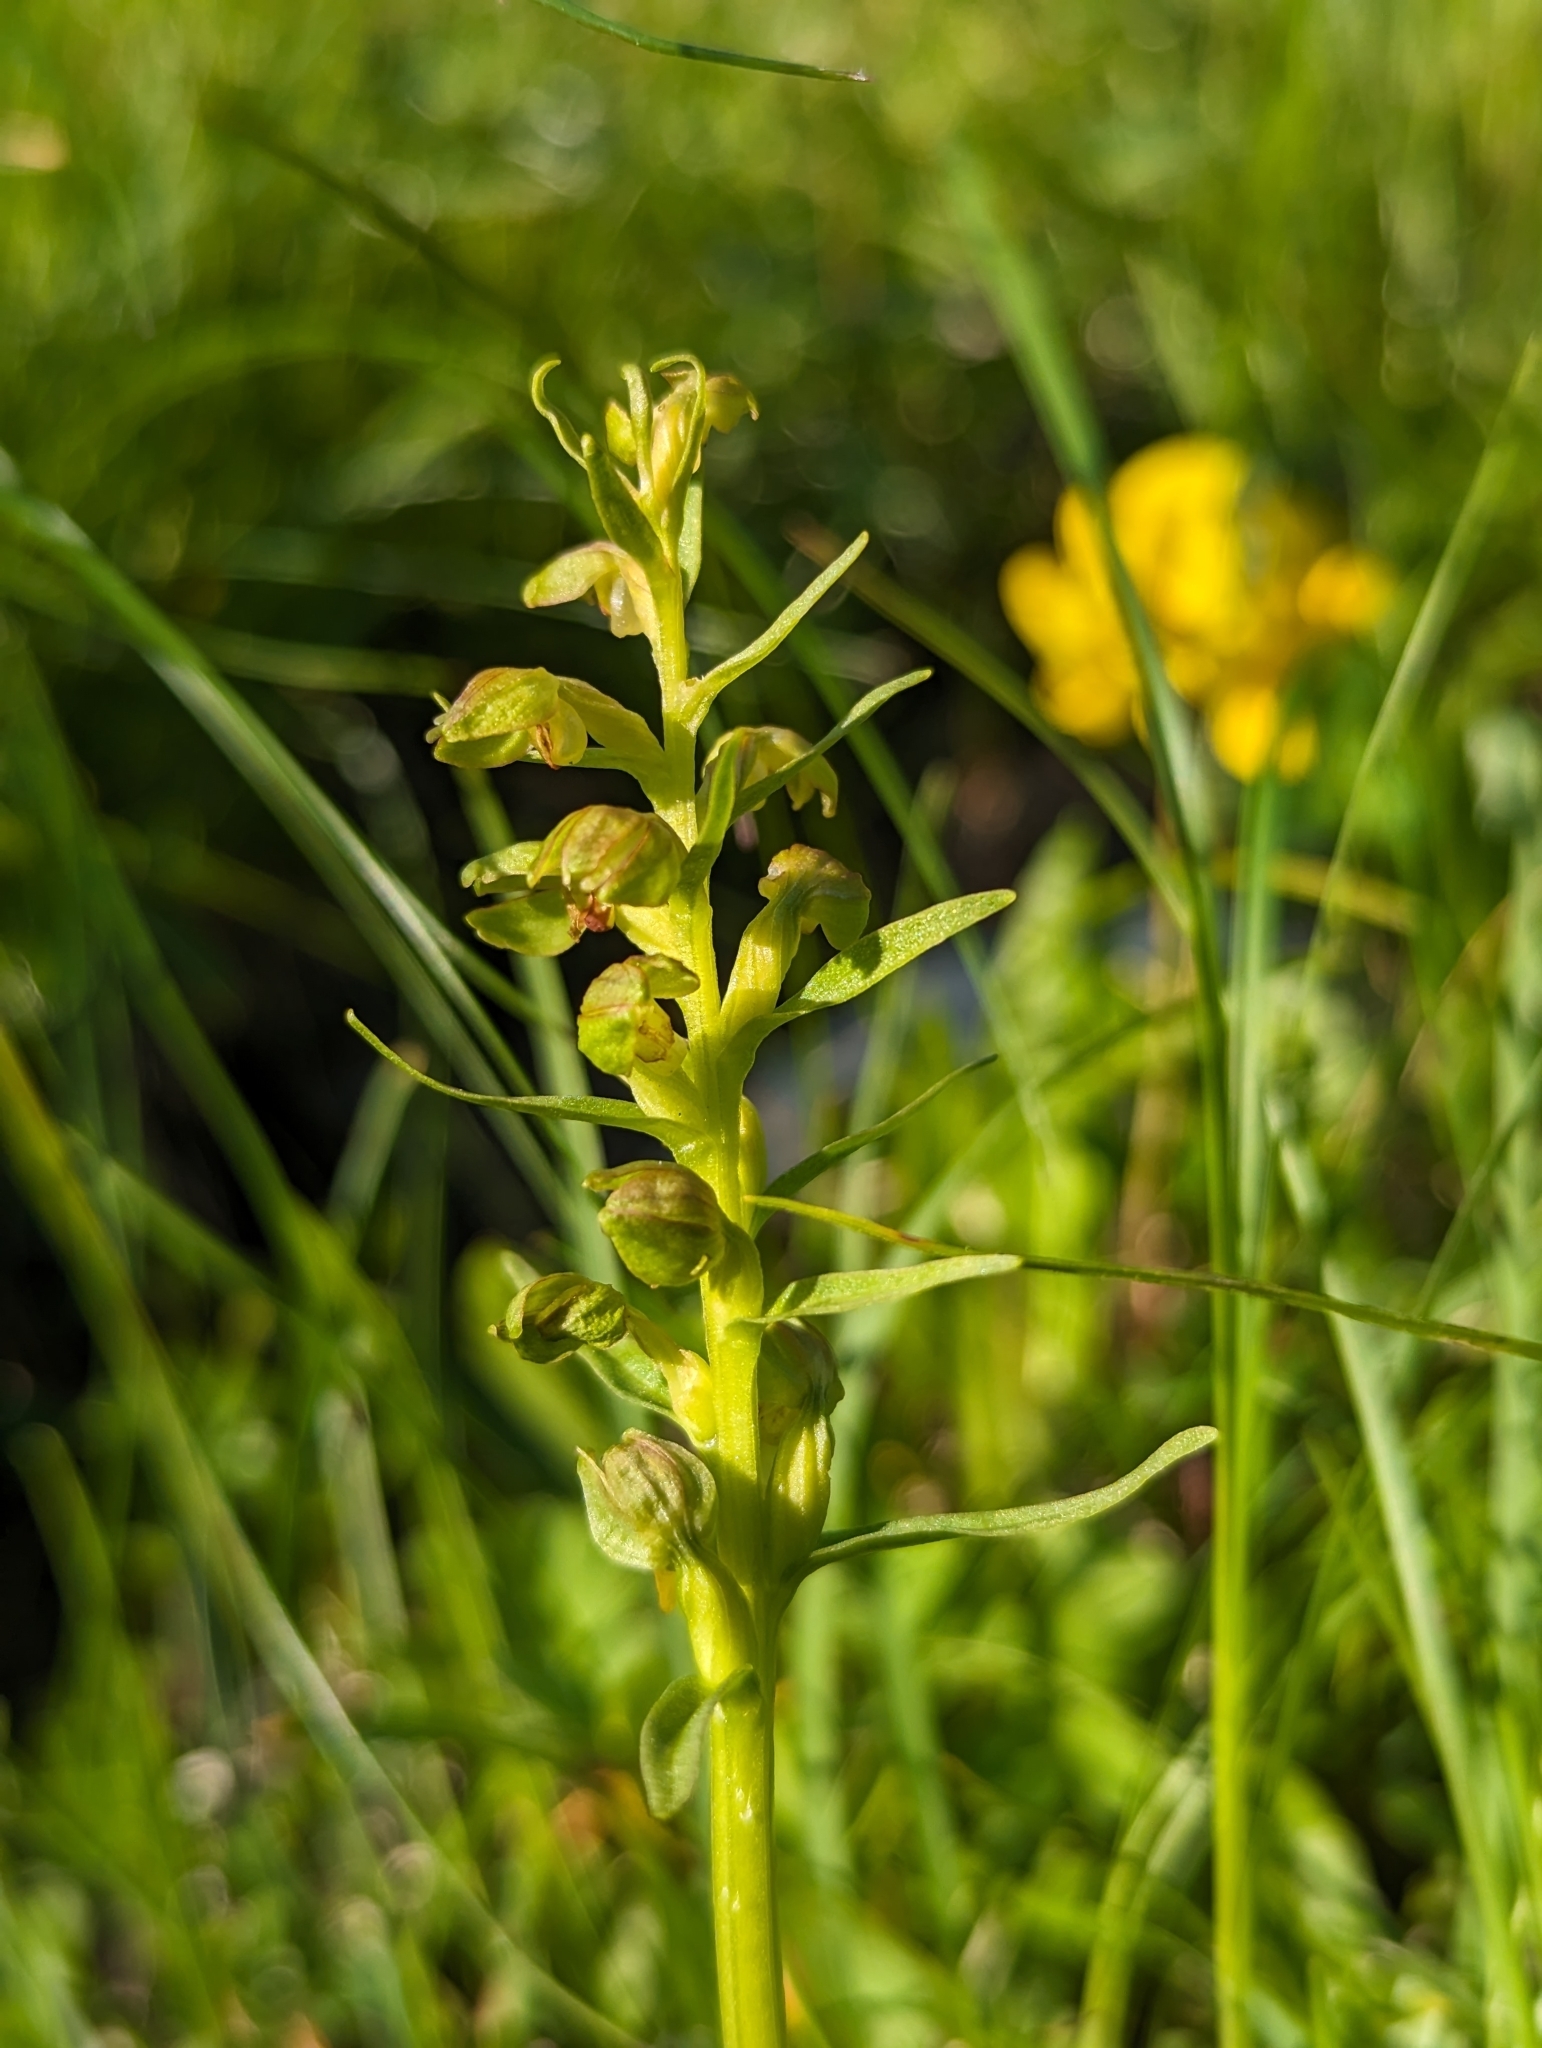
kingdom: Plantae
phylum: Tracheophyta
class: Liliopsida
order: Asparagales
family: Orchidaceae
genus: Dactylorhiza
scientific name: Dactylorhiza viridis
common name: Longbract frog orchid
